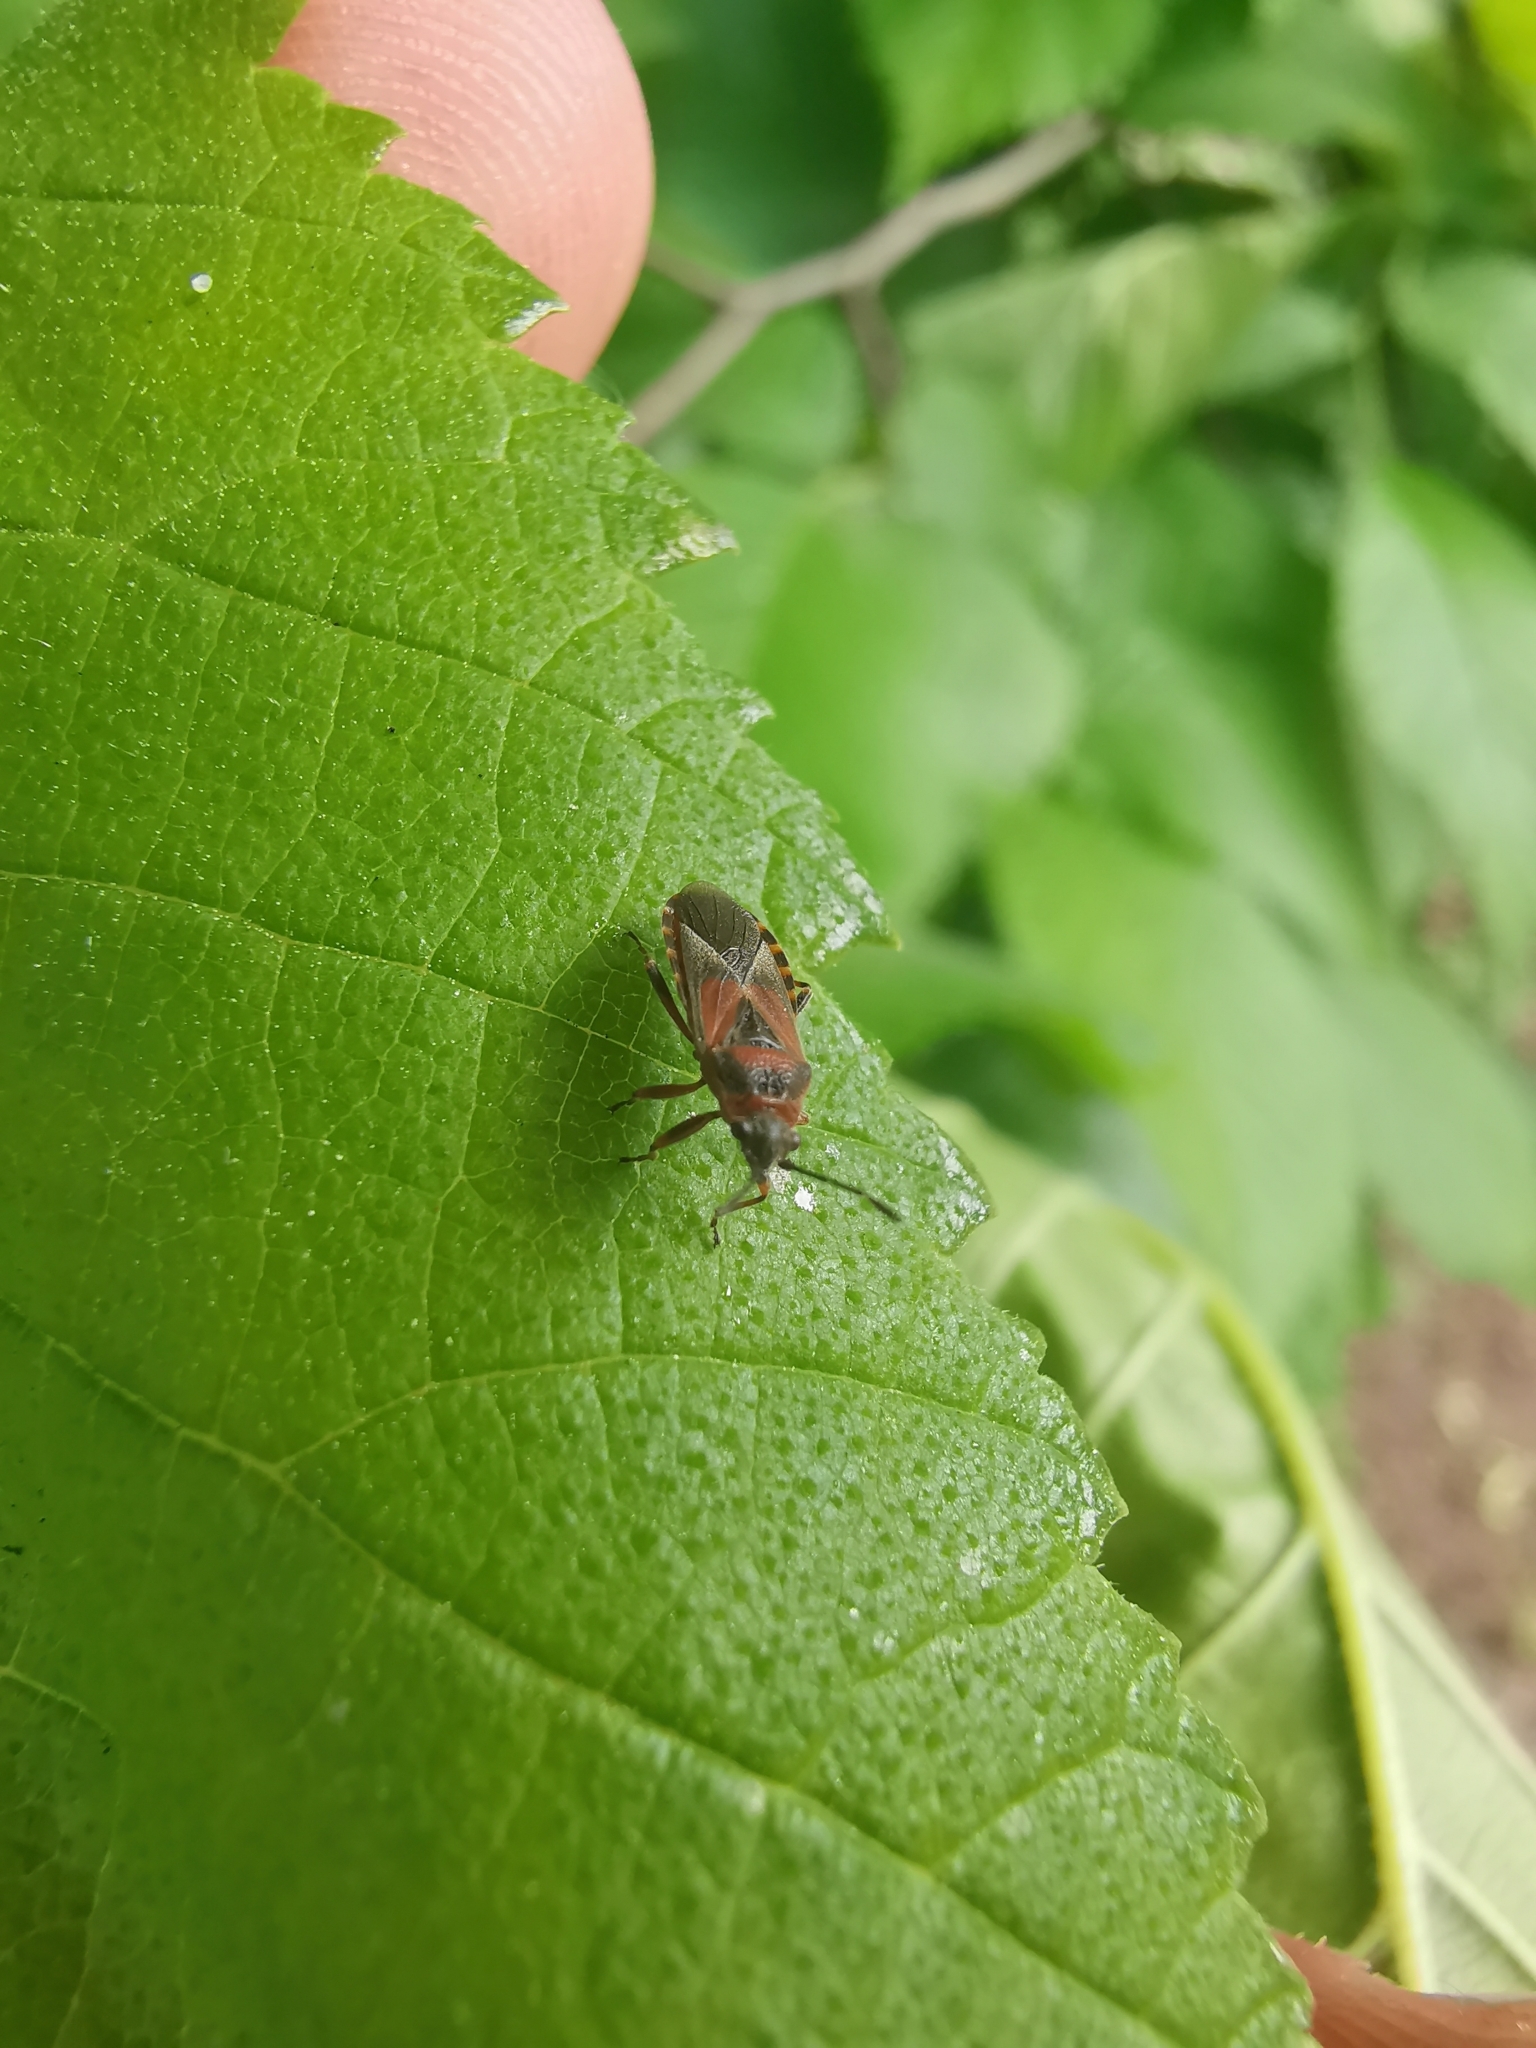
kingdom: Animalia
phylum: Arthropoda
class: Insecta
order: Hemiptera
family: Lygaeidae
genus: Arocatus
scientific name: Arocatus melanocephalus
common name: Lygaeid bug
